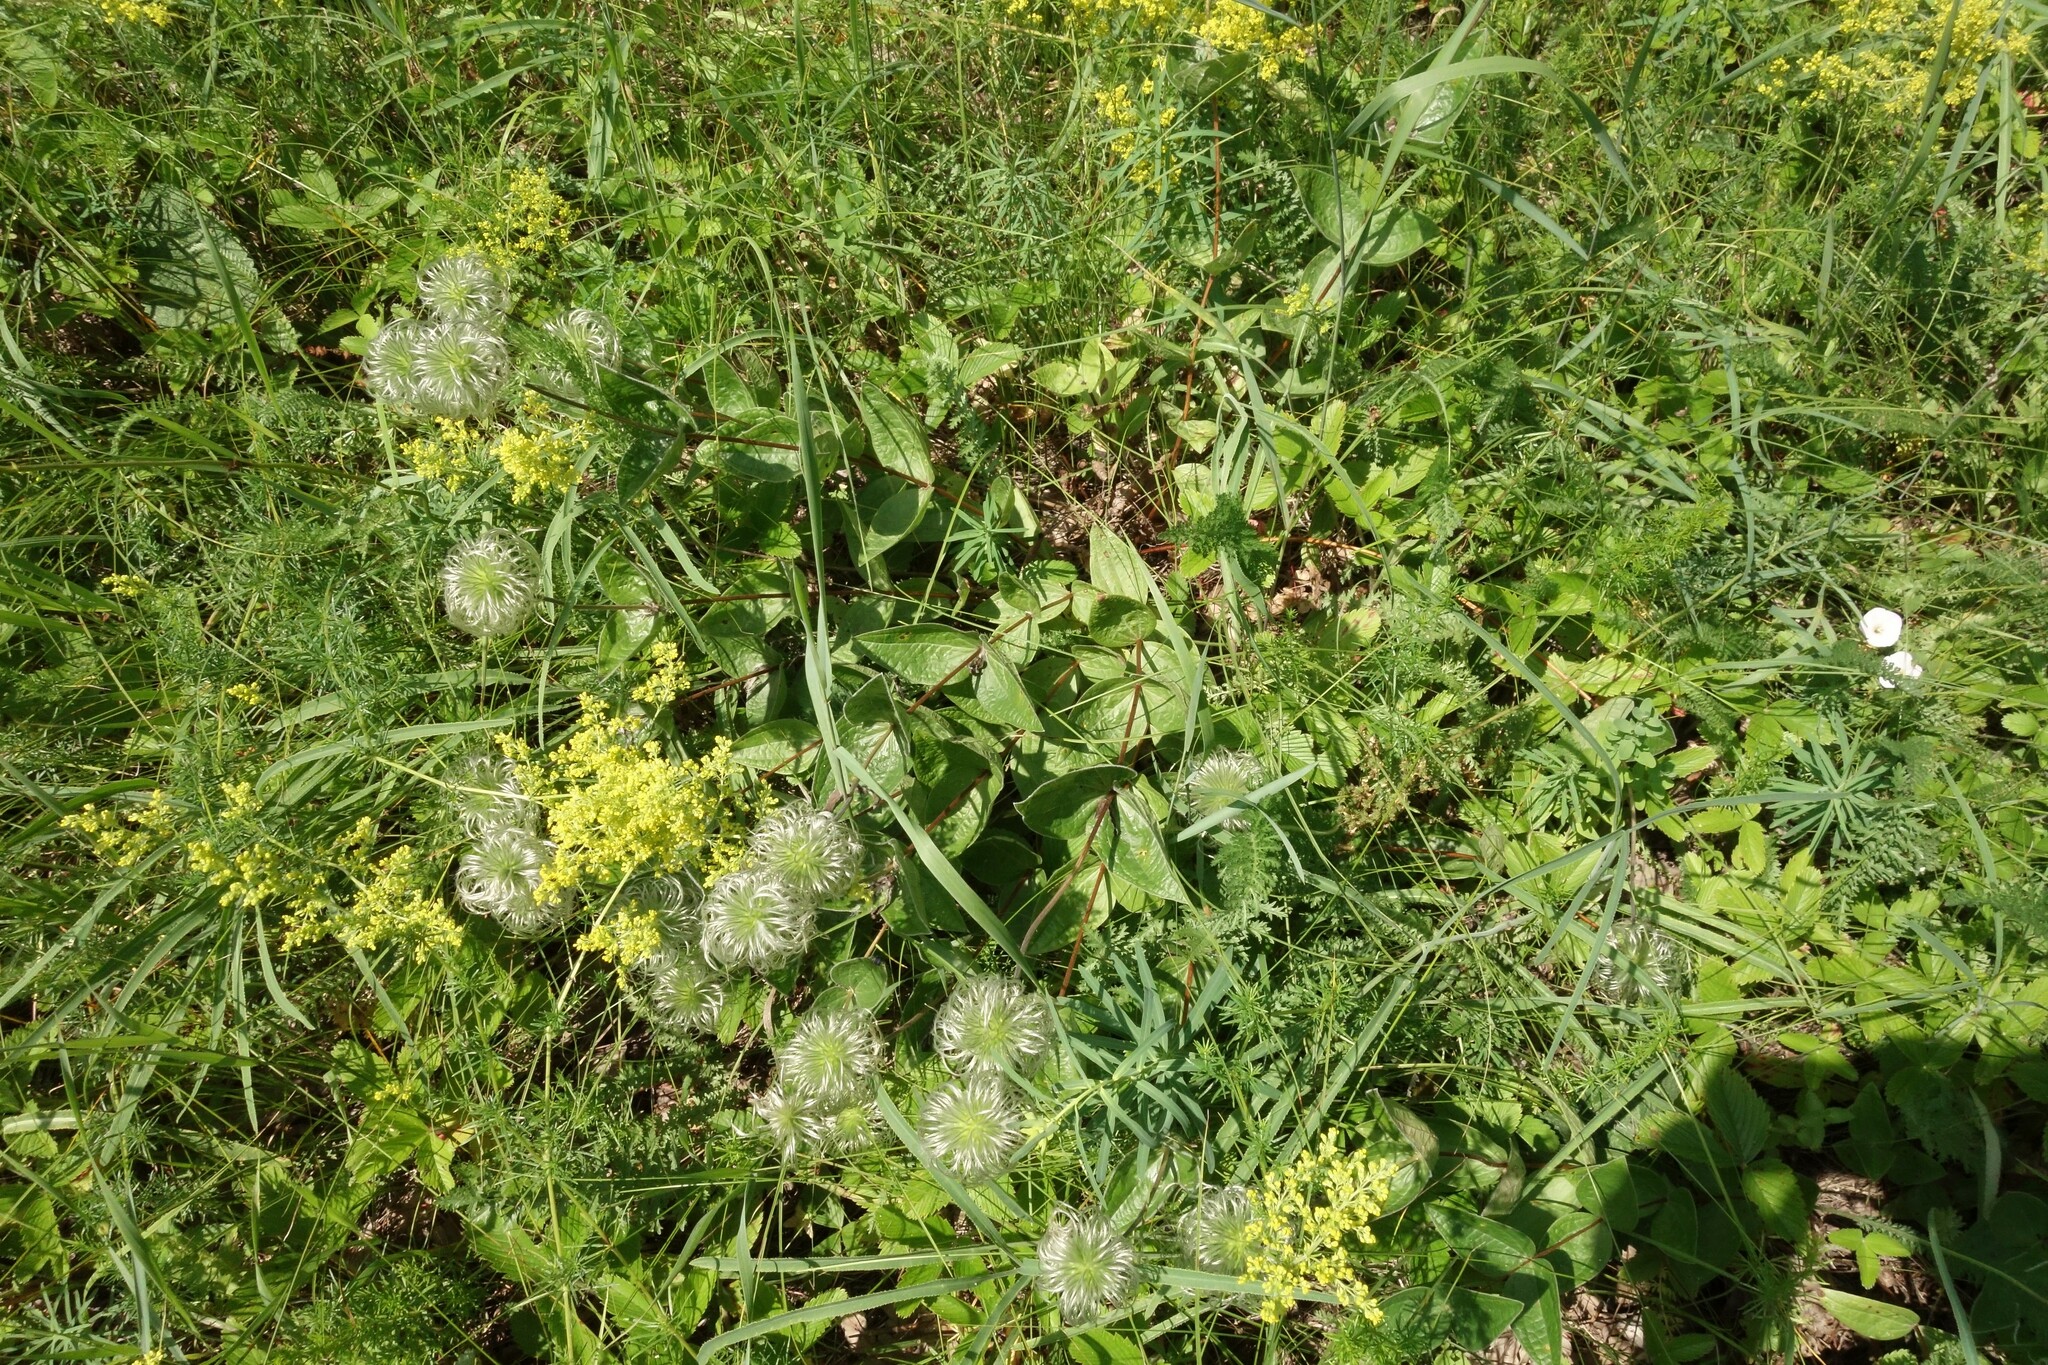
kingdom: Plantae
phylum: Tracheophyta
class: Magnoliopsida
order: Ranunculales
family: Ranunculaceae
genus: Clematis
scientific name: Clematis integrifolia
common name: Solitary clematis
